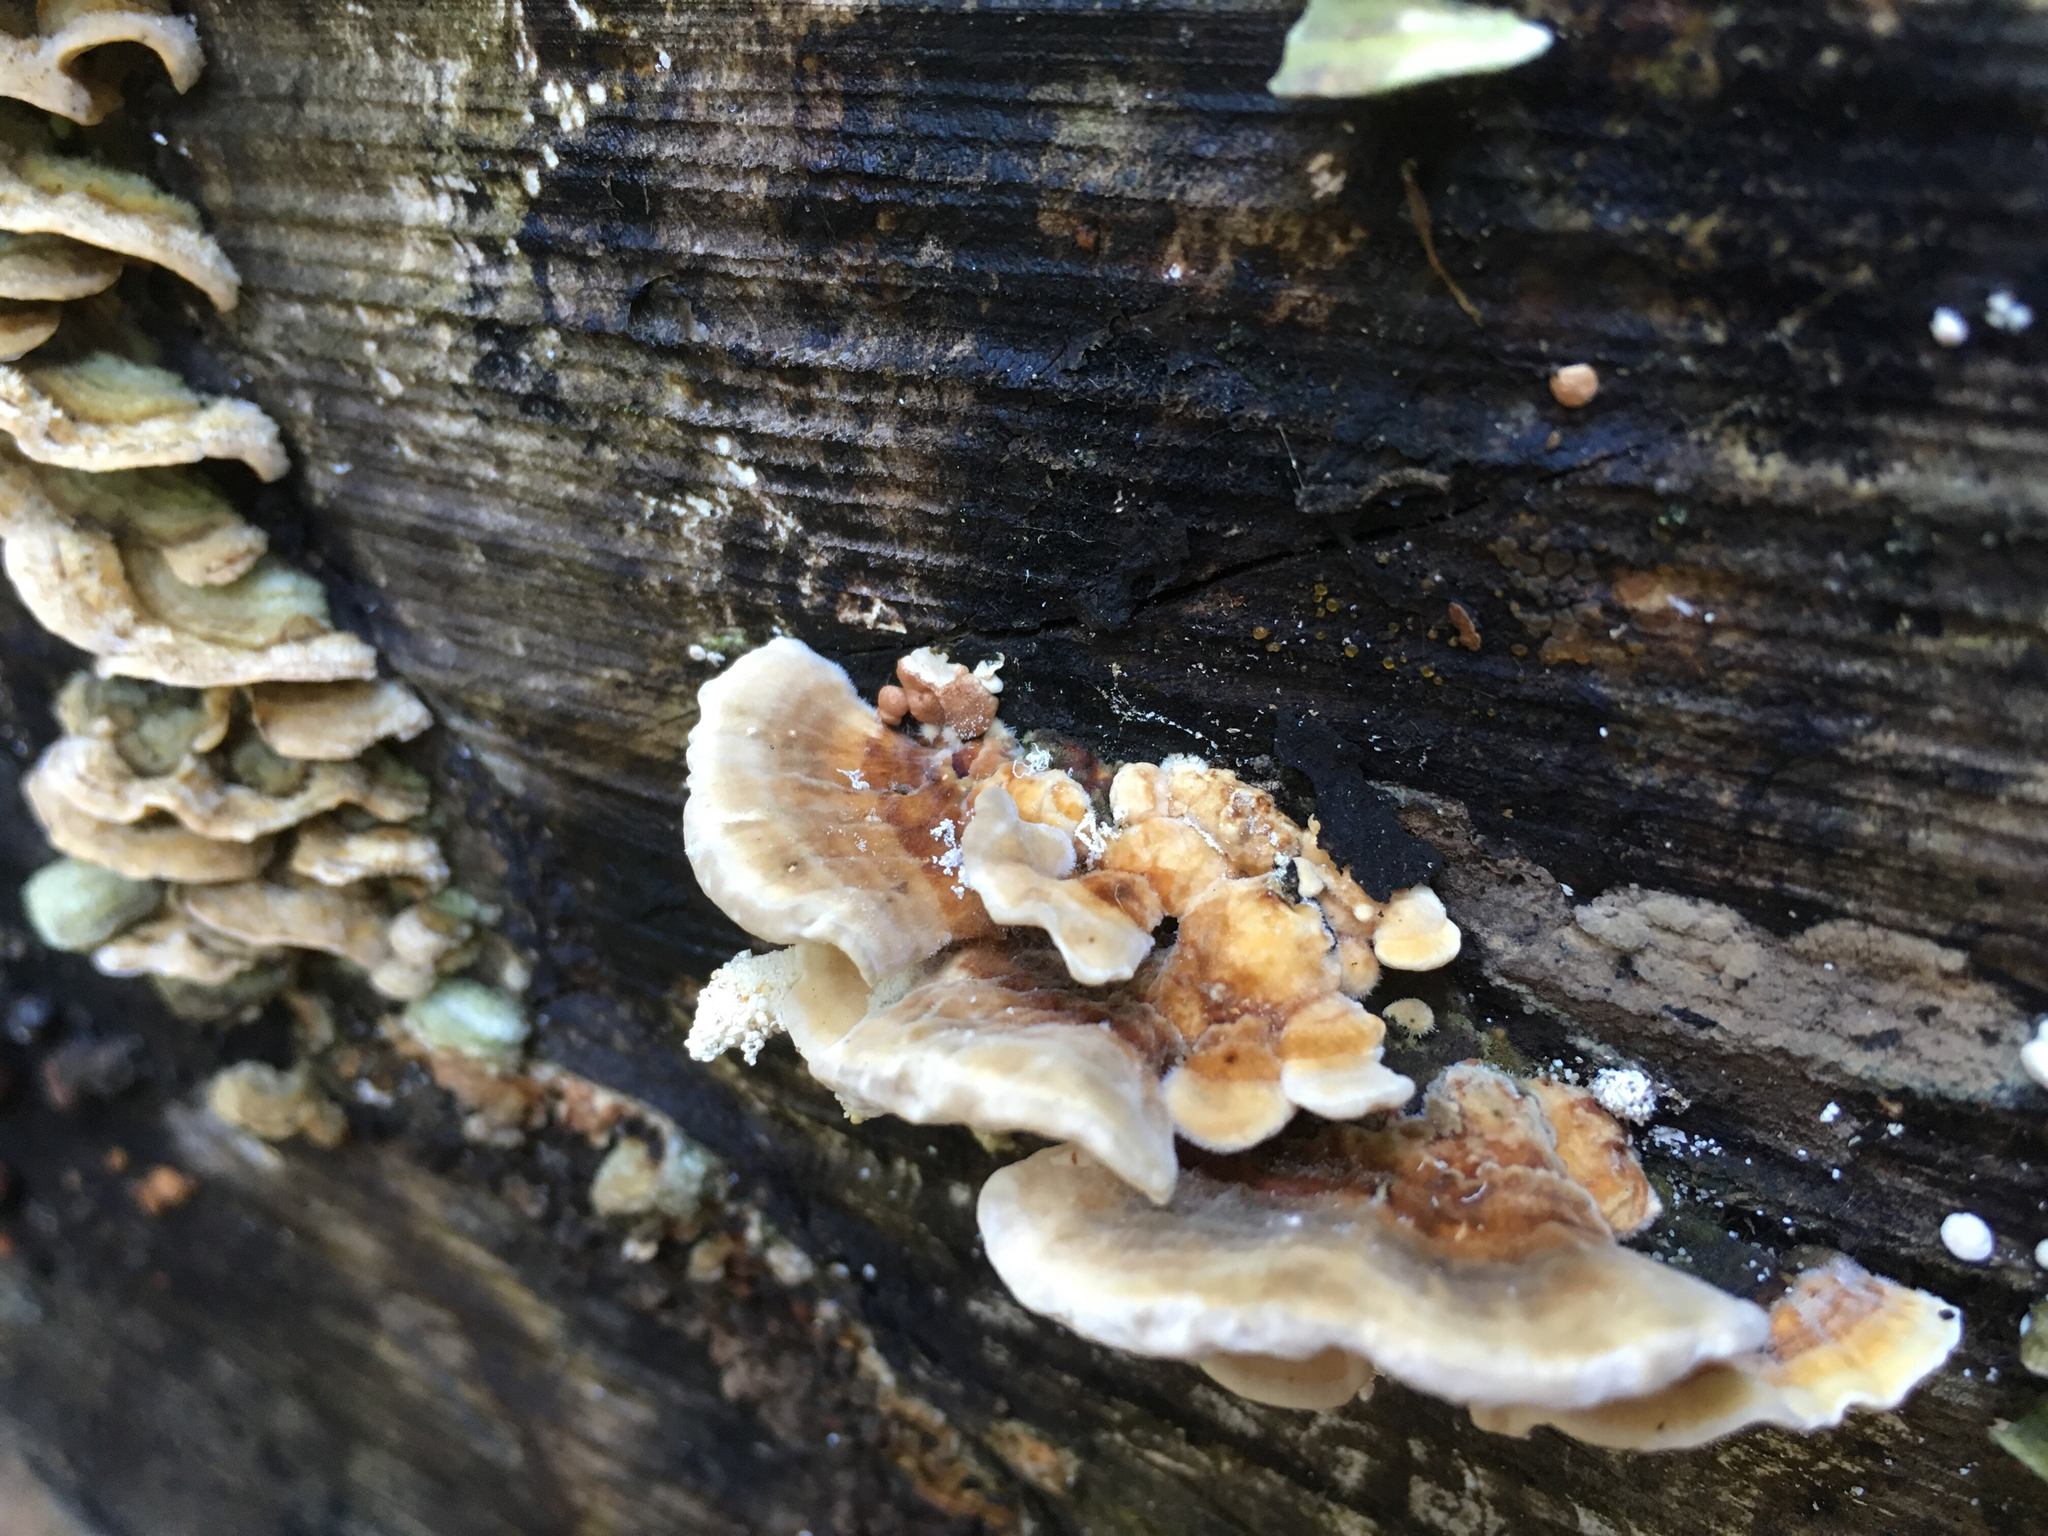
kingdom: Fungi
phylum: Basidiomycota
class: Agaricomycetes
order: Polyporales
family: Polyporaceae
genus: Trametes
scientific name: Trametes ochracea
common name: Ochre bracket
